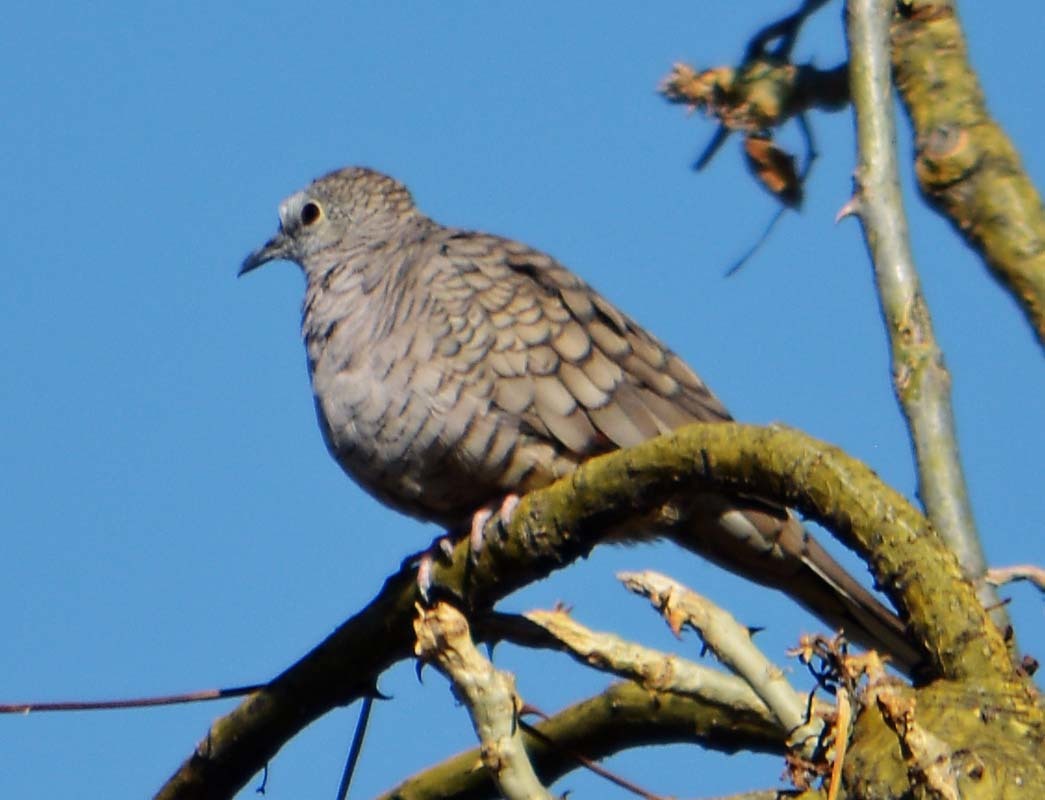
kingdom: Animalia
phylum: Chordata
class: Aves
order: Columbiformes
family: Columbidae
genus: Columbina
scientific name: Columbina inca
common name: Inca dove
